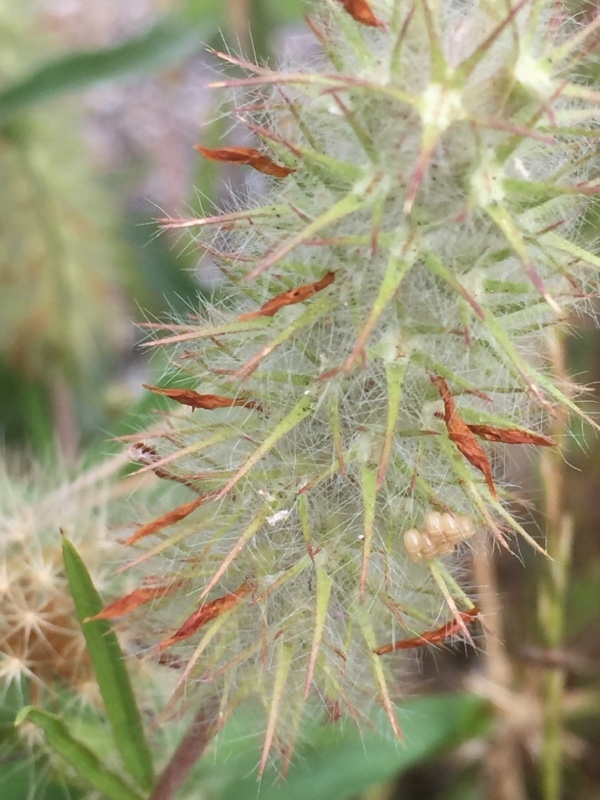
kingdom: Plantae
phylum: Tracheophyta
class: Magnoliopsida
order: Fabales
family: Fabaceae
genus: Trifolium
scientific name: Trifolium angustifolium
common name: Narrow clover
